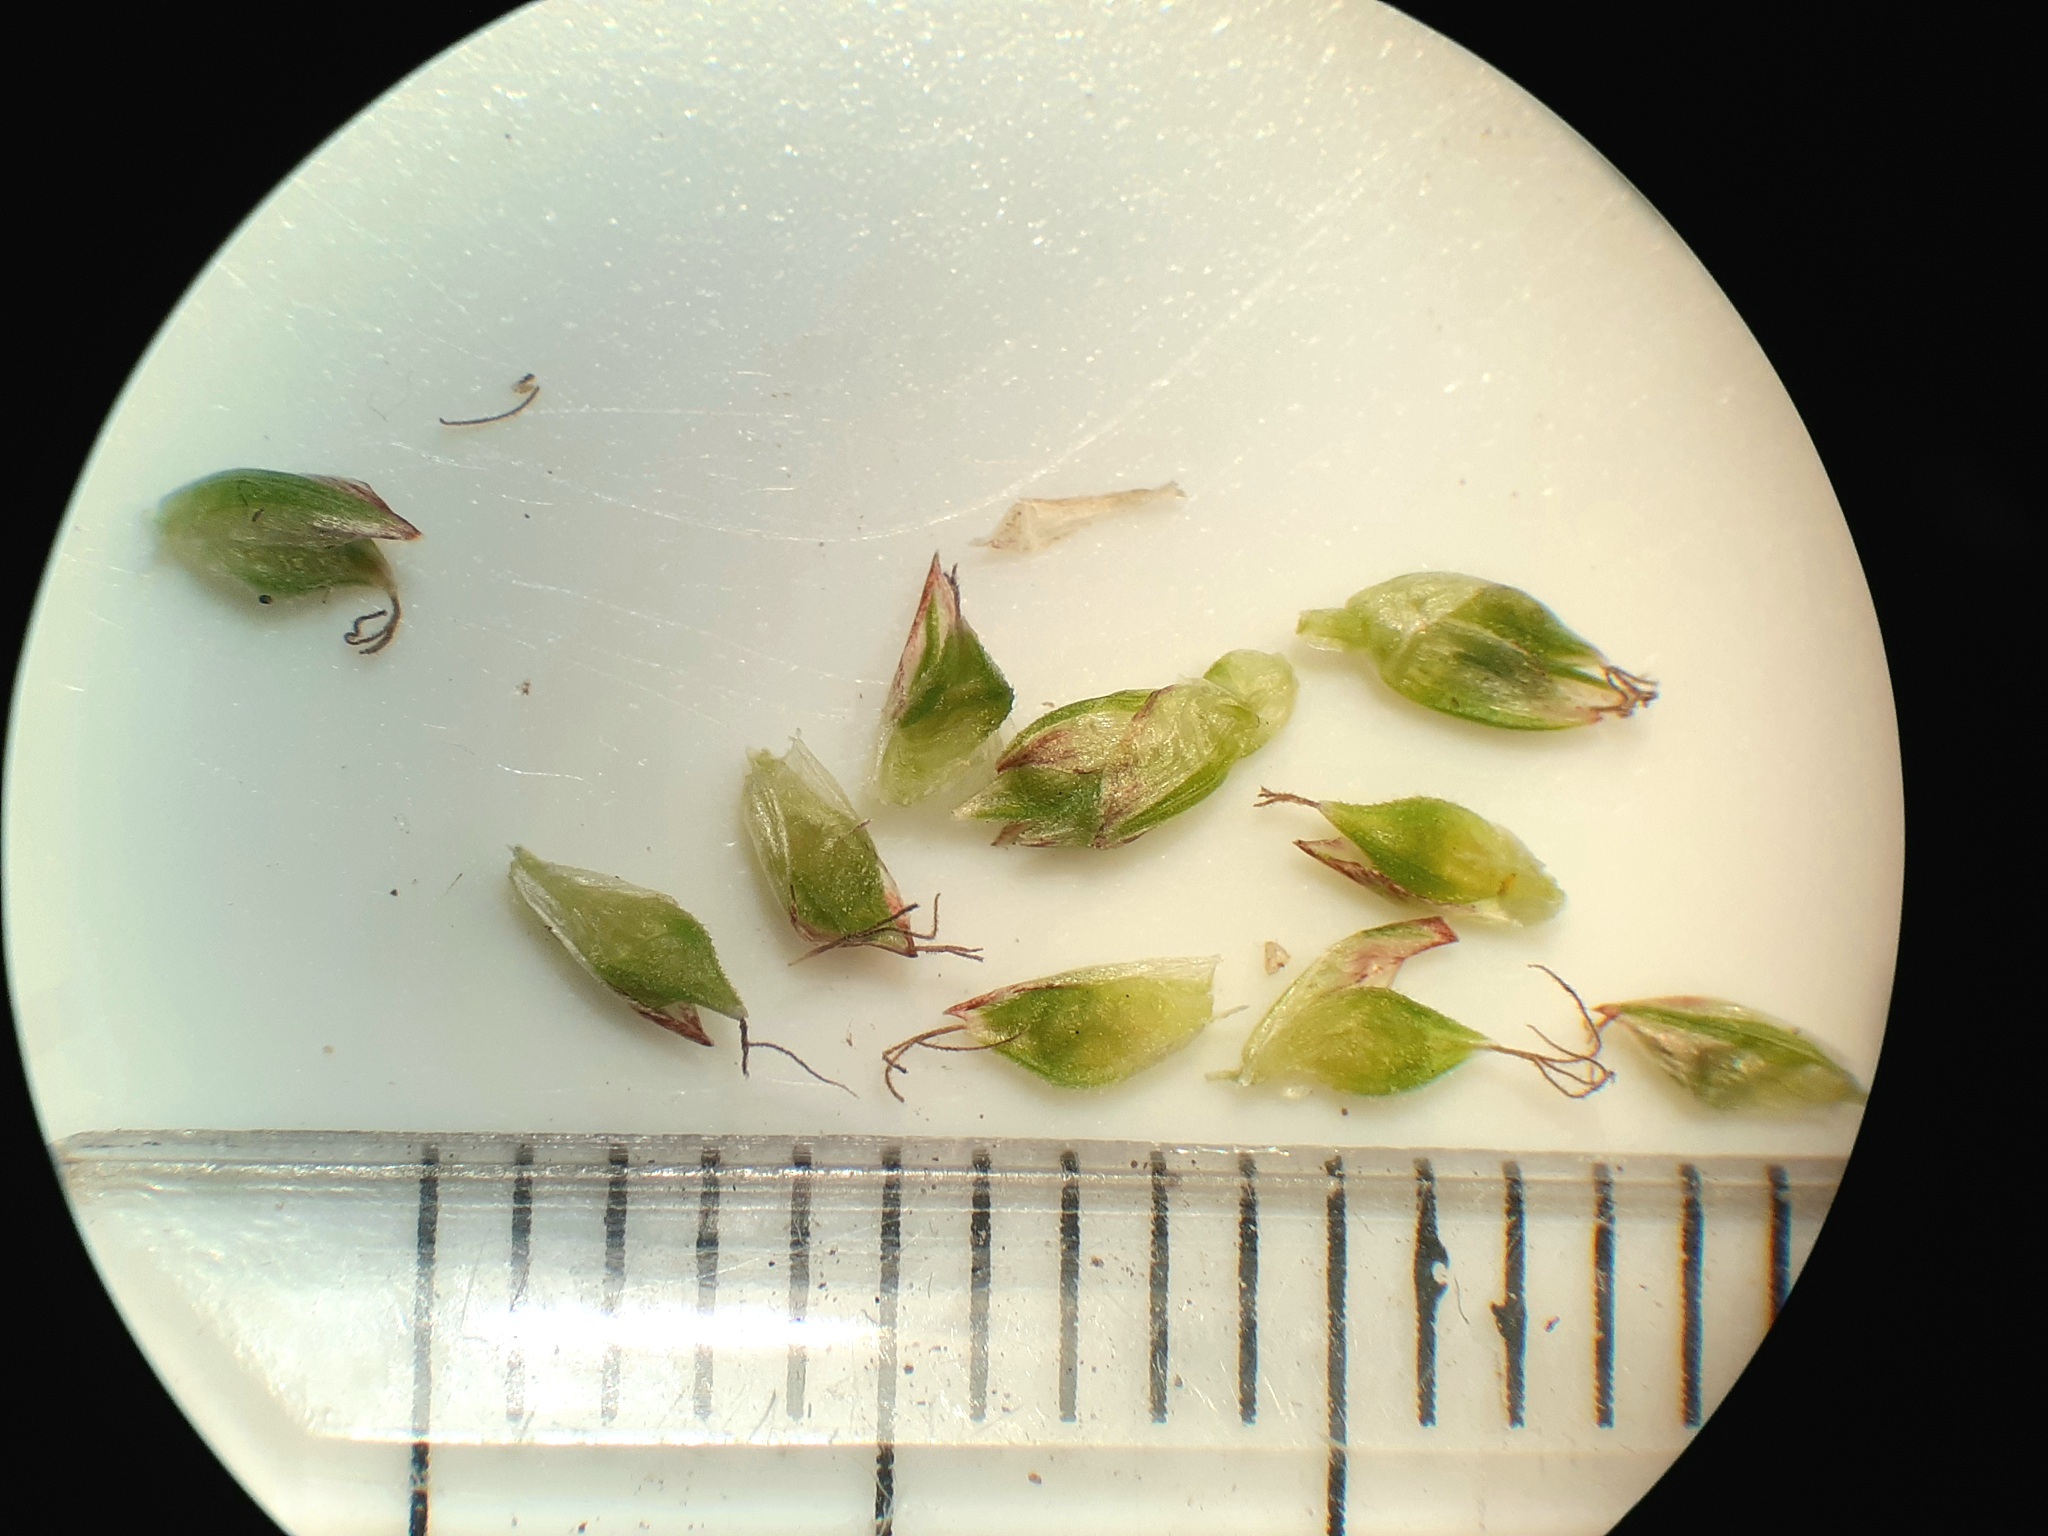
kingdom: Plantae
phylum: Tracheophyta
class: Liliopsida
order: Poales
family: Cyperaceae
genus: Carex
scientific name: Carex umbellata
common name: Early oak sedge
